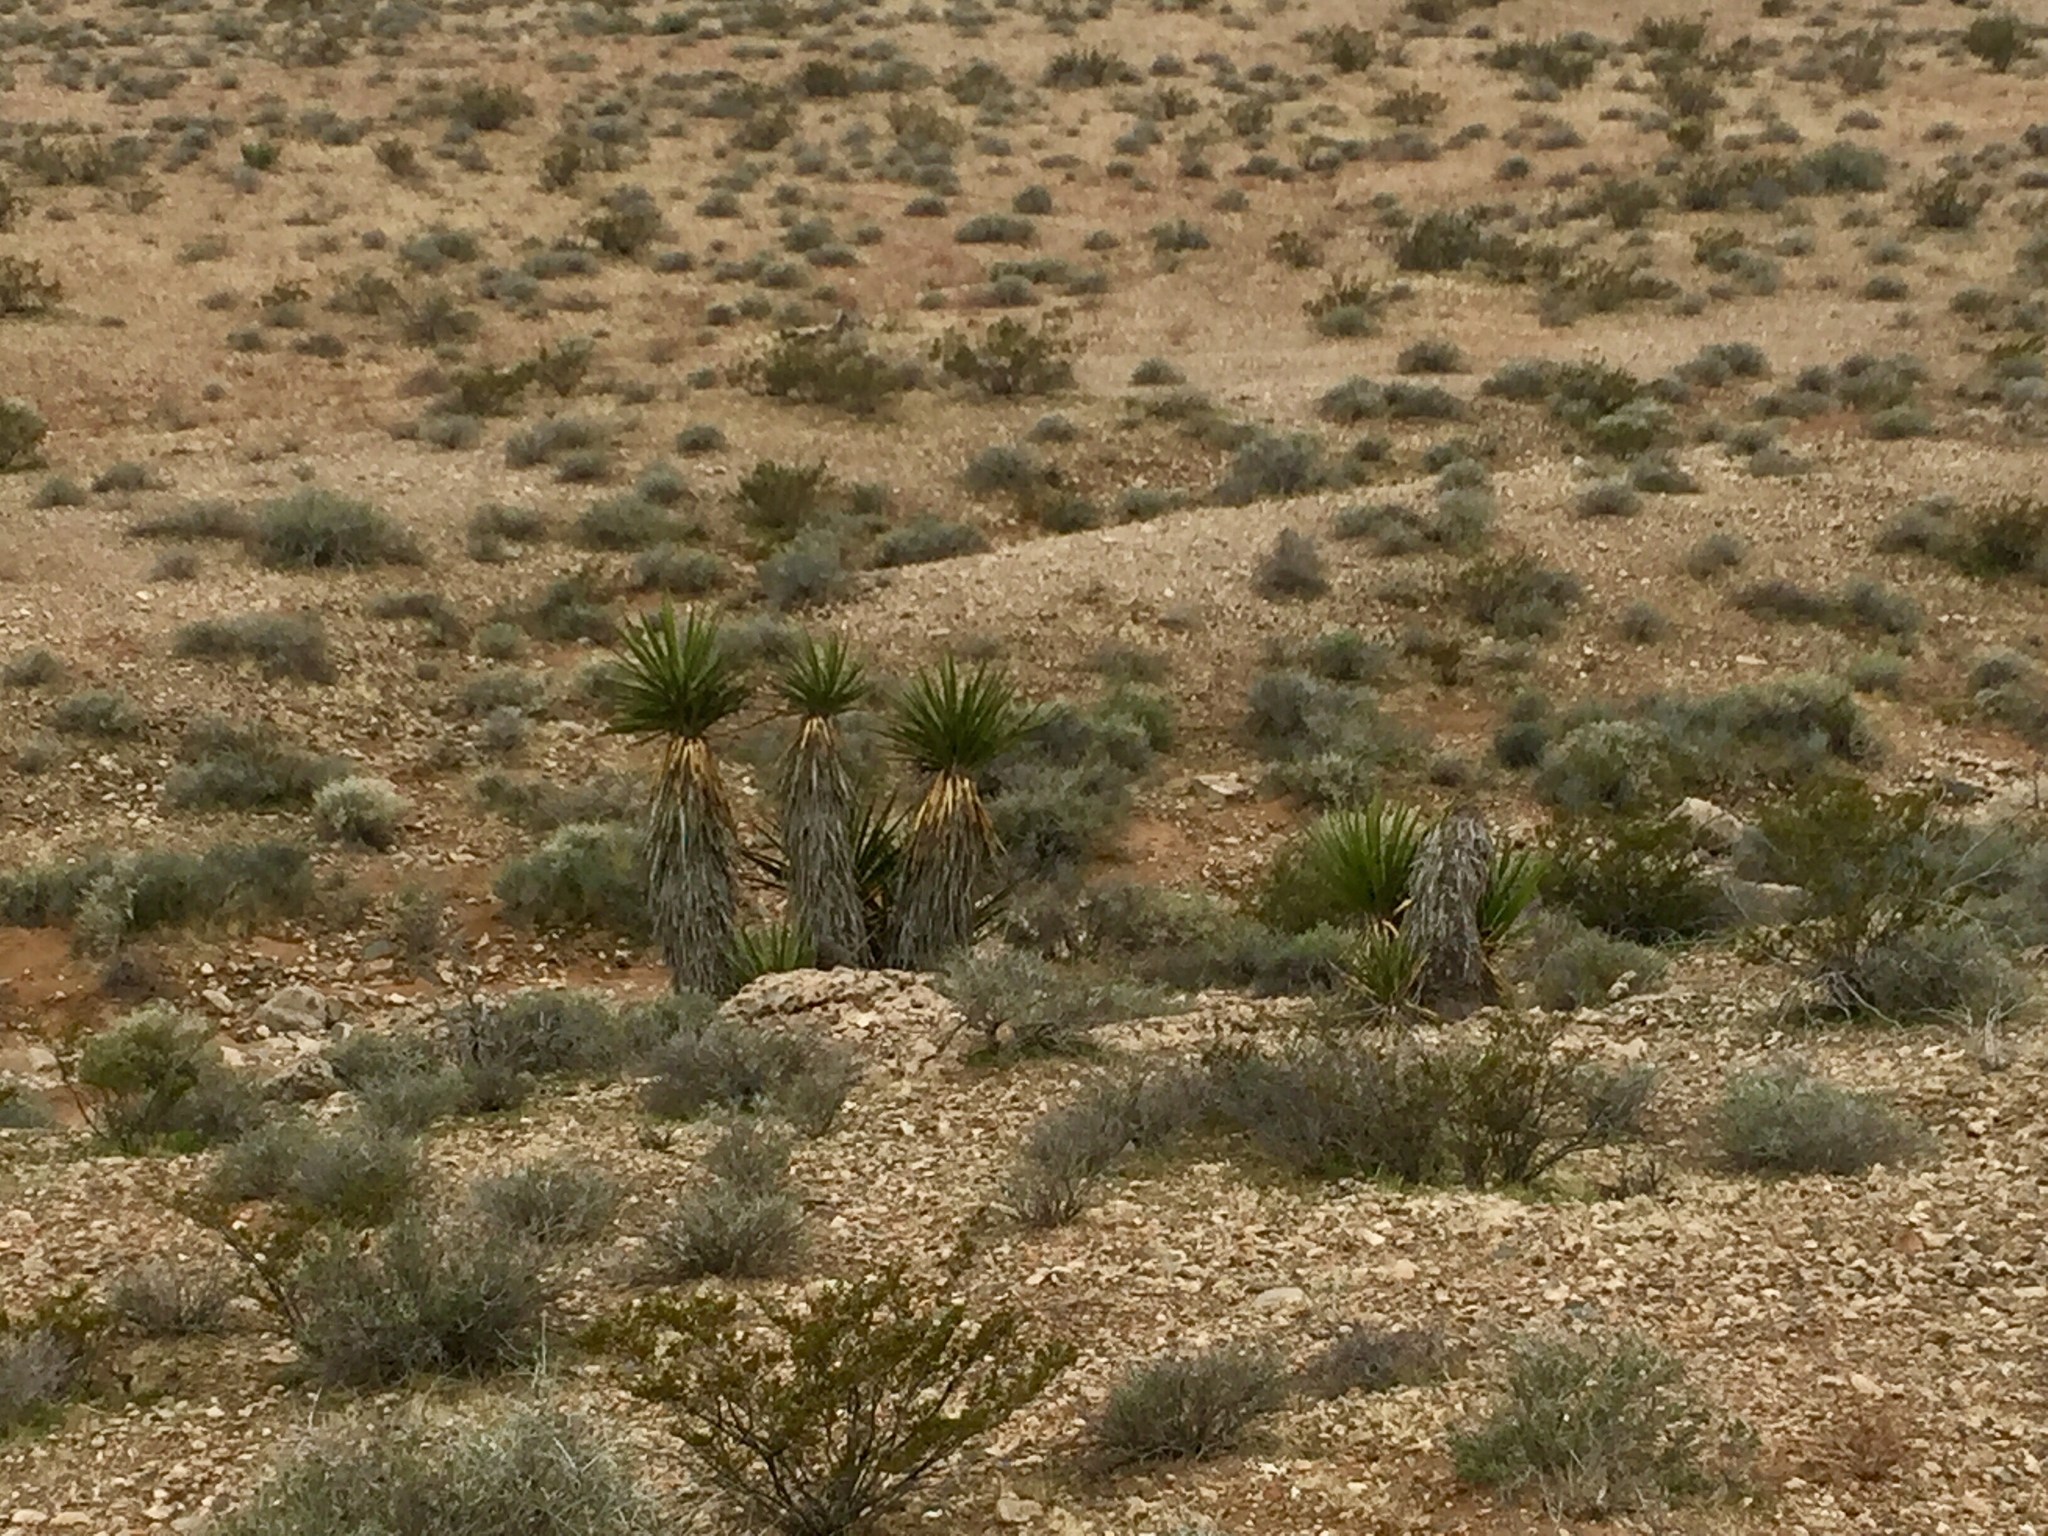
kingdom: Plantae
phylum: Tracheophyta
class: Liliopsida
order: Asparagales
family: Asparagaceae
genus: Yucca
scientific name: Yucca schidigera
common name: Mojave yucca
